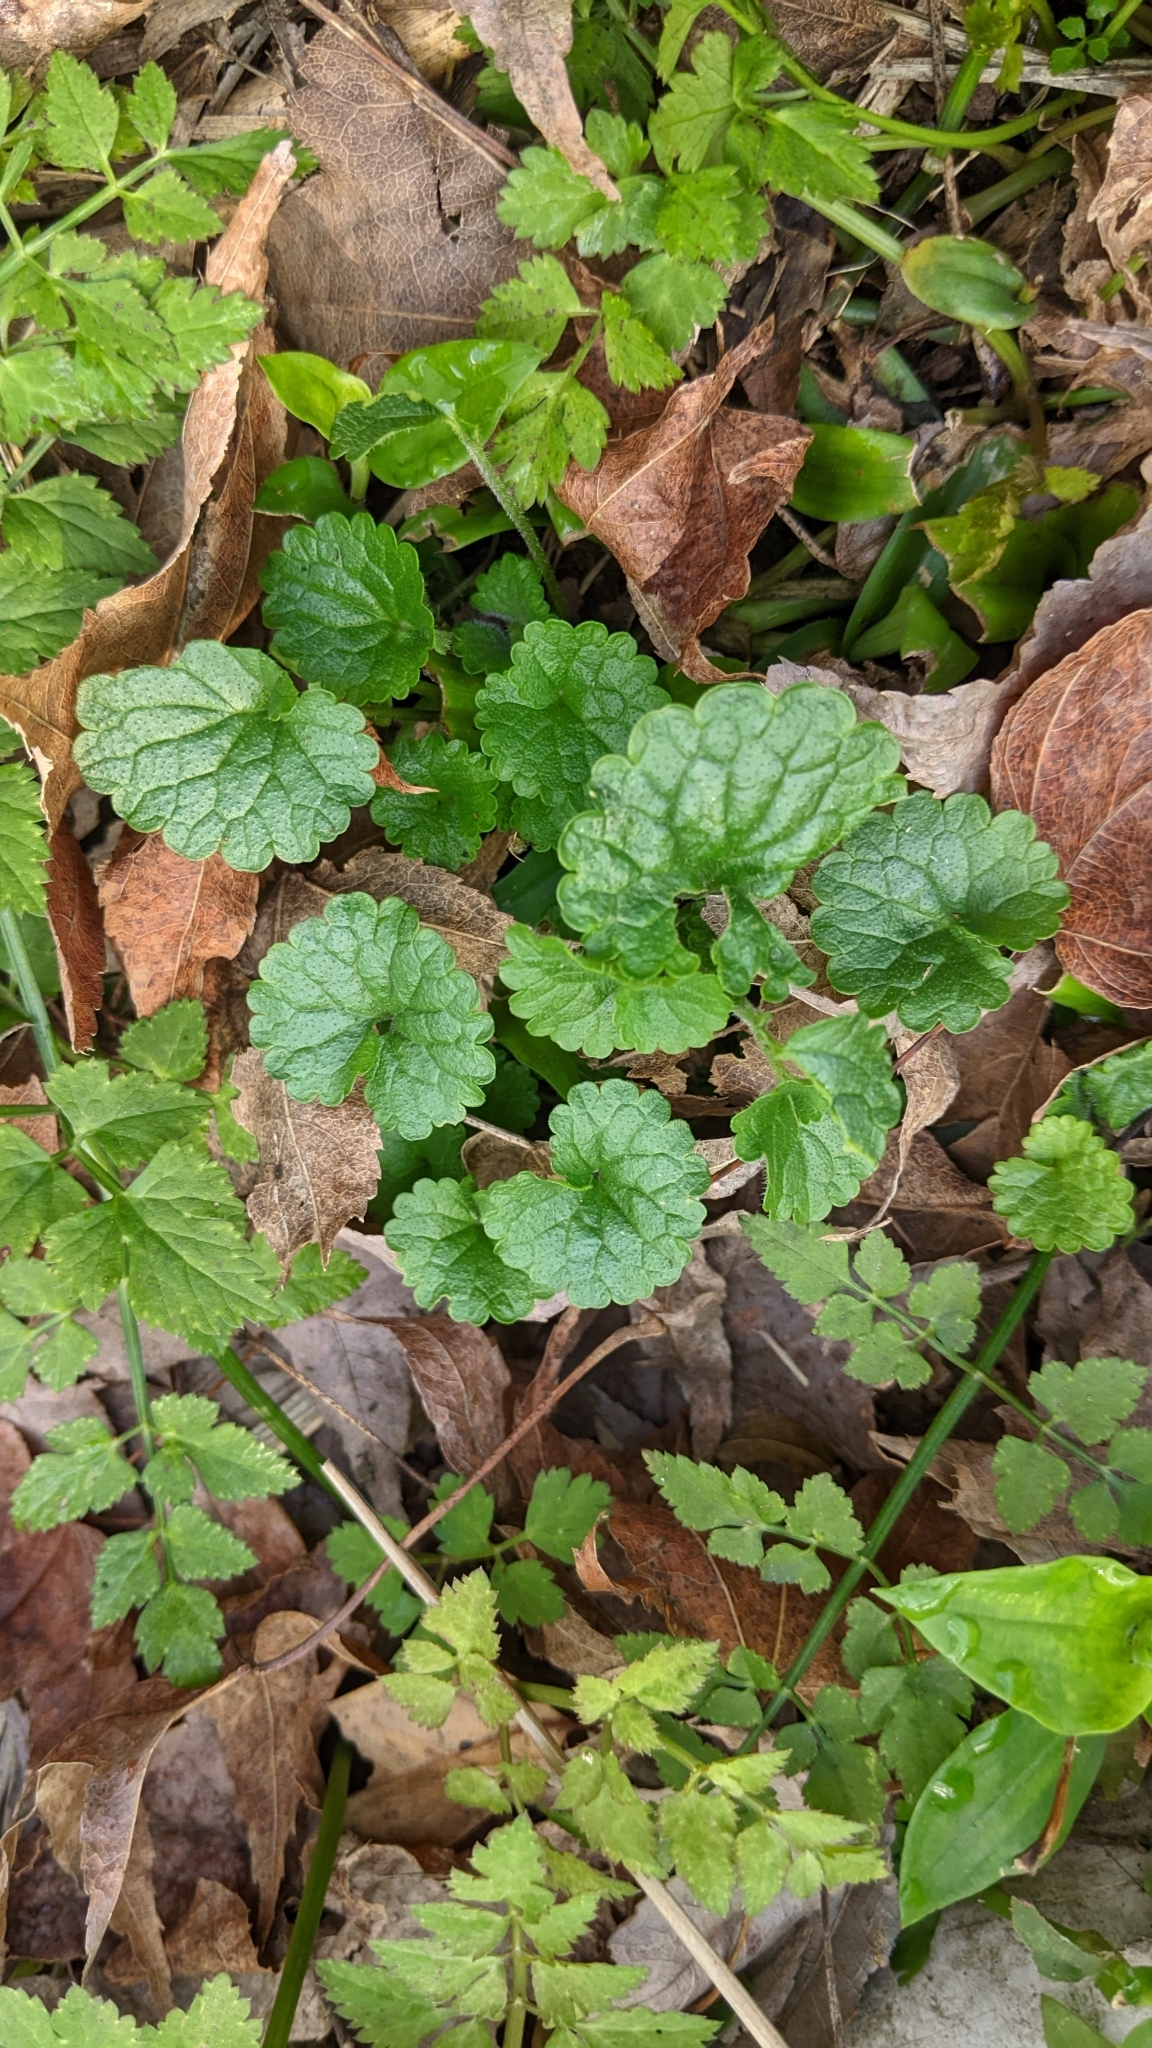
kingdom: Plantae
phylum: Tracheophyta
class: Magnoliopsida
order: Lamiales
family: Lamiaceae
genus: Glechoma
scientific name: Glechoma grandis
